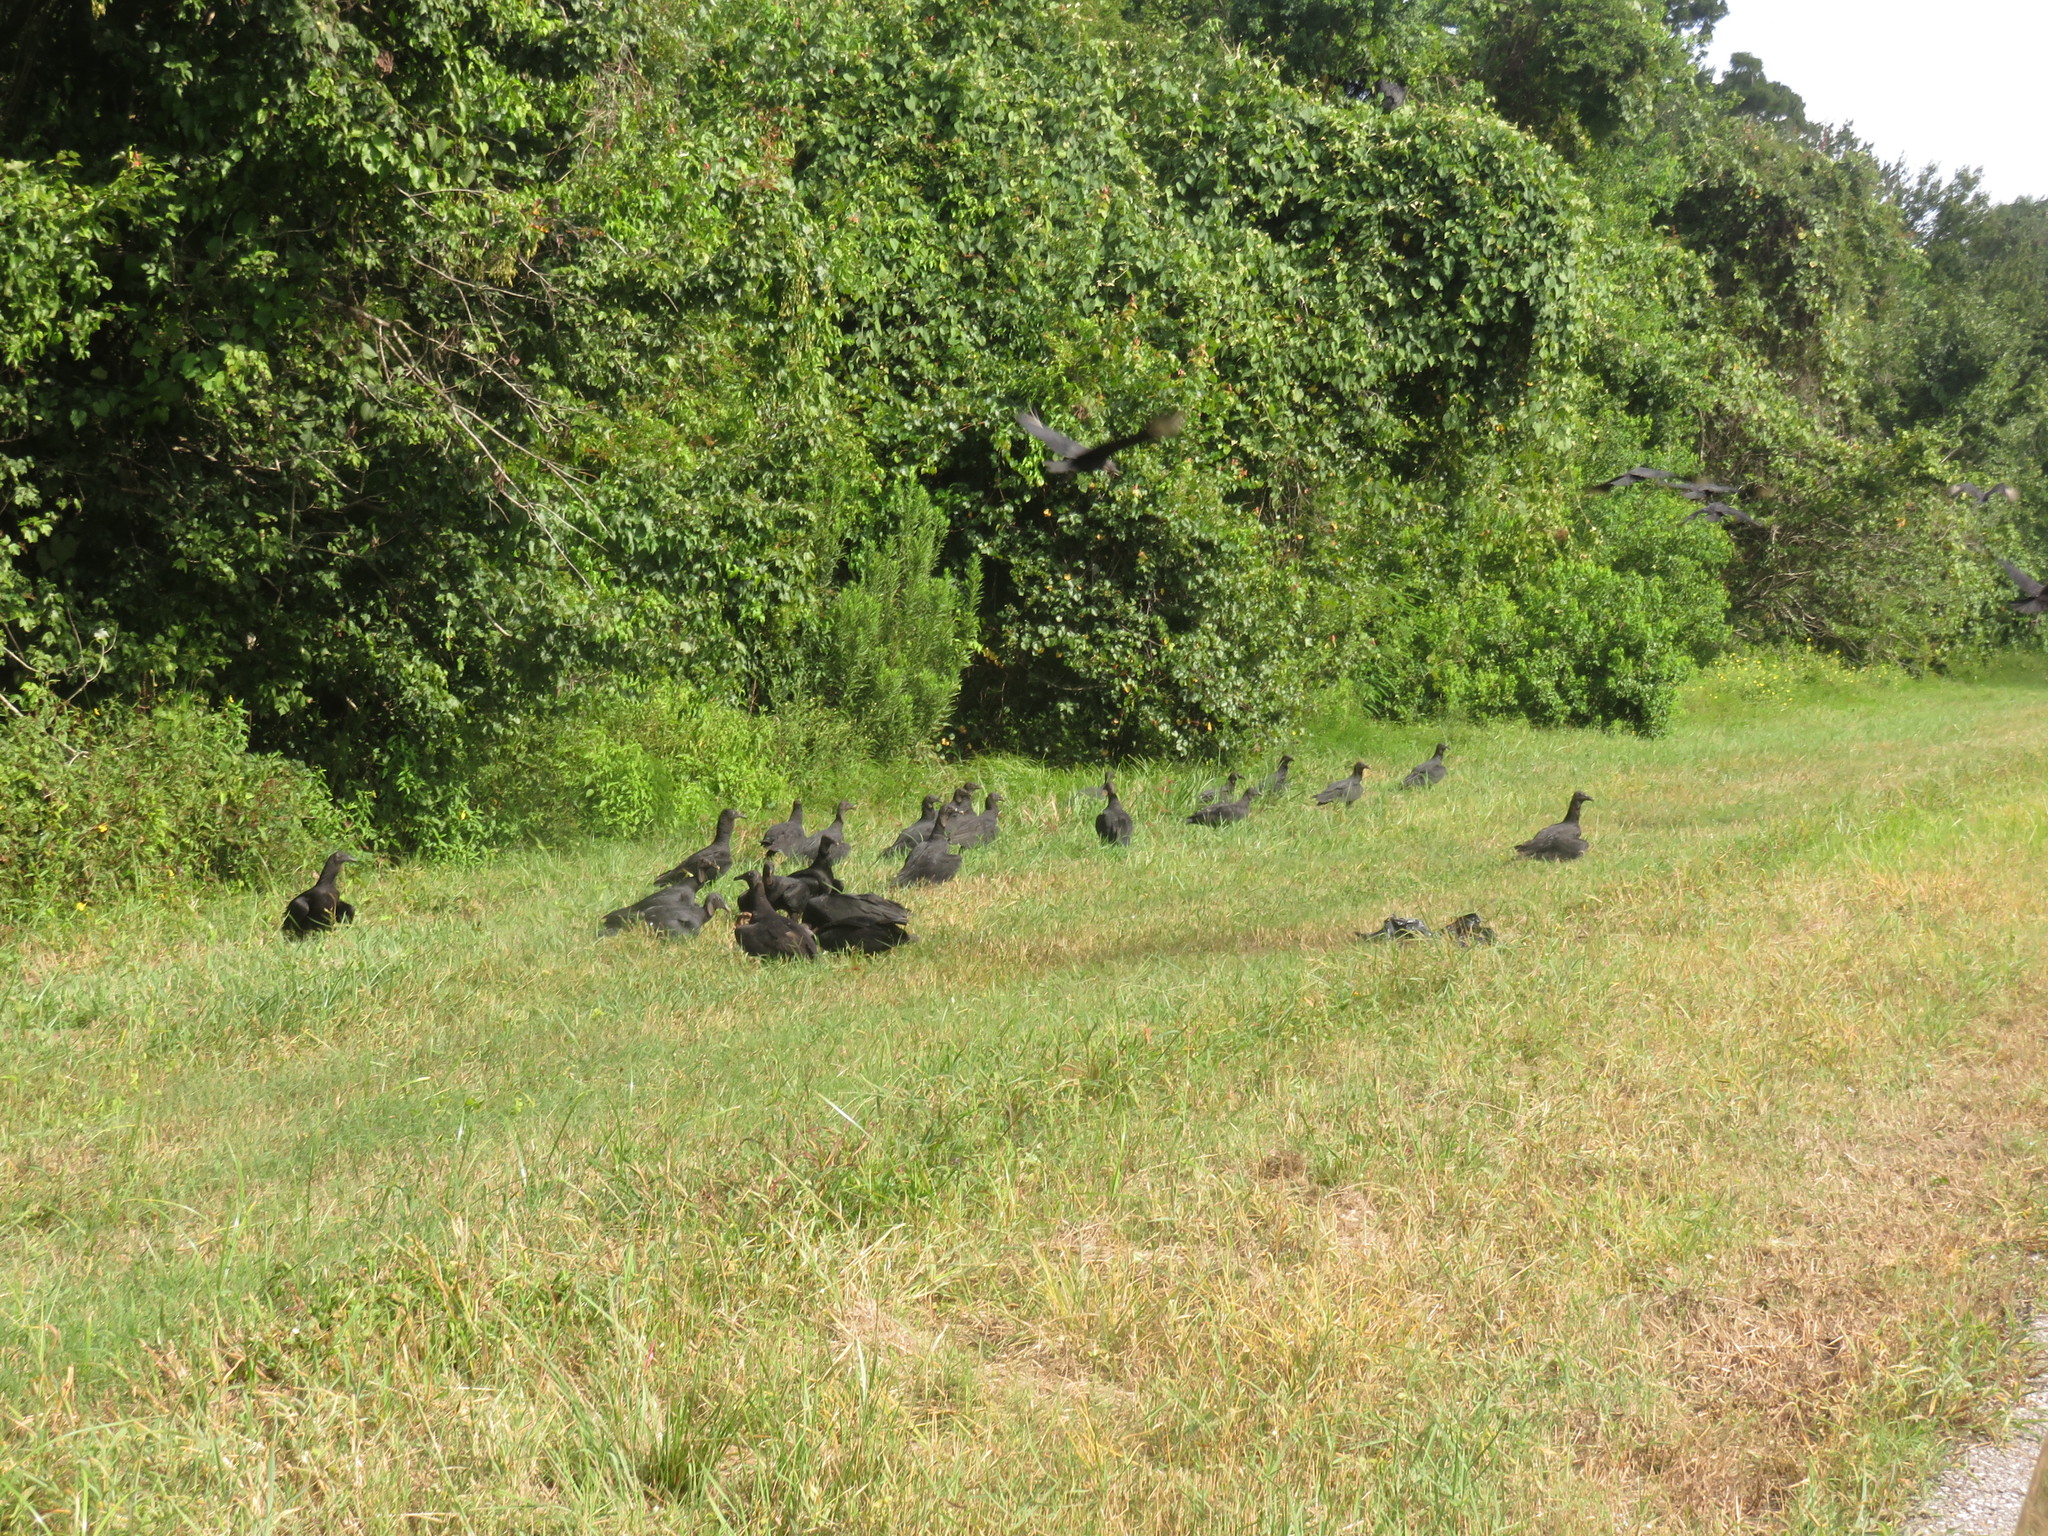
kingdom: Animalia
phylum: Chordata
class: Aves
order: Accipitriformes
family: Cathartidae
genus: Coragyps
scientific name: Coragyps atratus
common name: Black vulture
